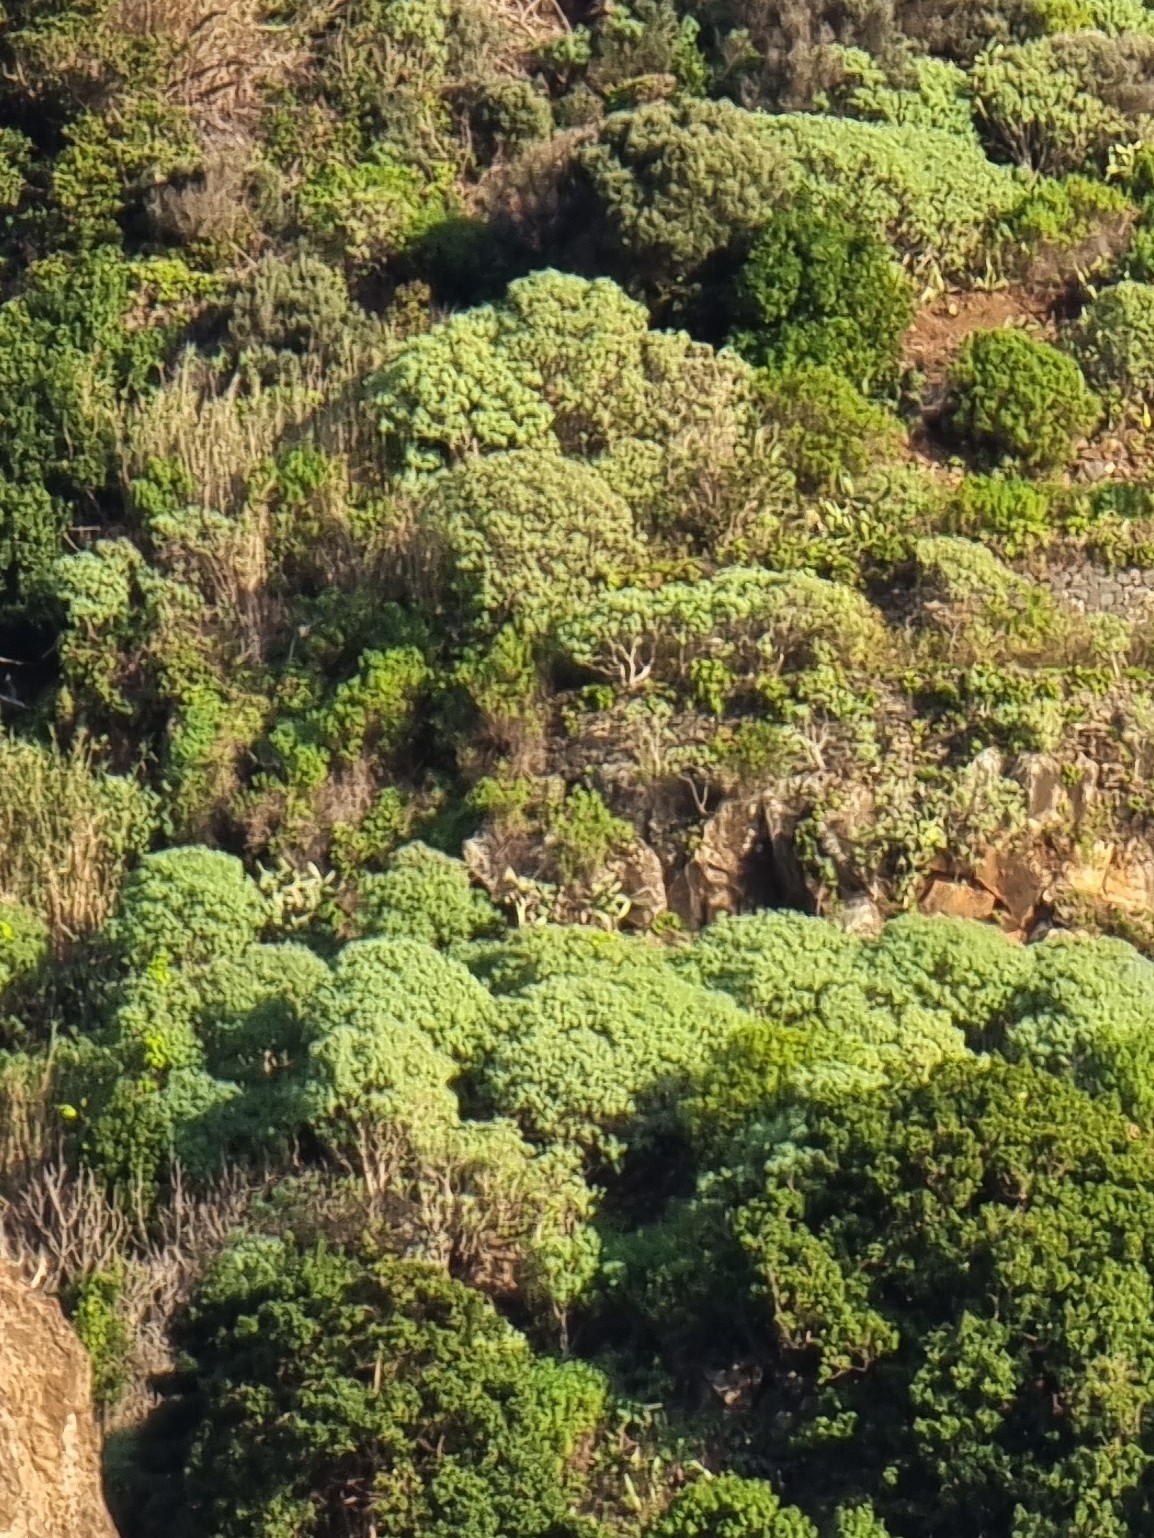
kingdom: Plantae
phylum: Tracheophyta
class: Magnoliopsida
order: Malpighiales
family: Euphorbiaceae
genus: Euphorbia
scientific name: Euphorbia piscatoria
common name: Fish-stunning spurge
